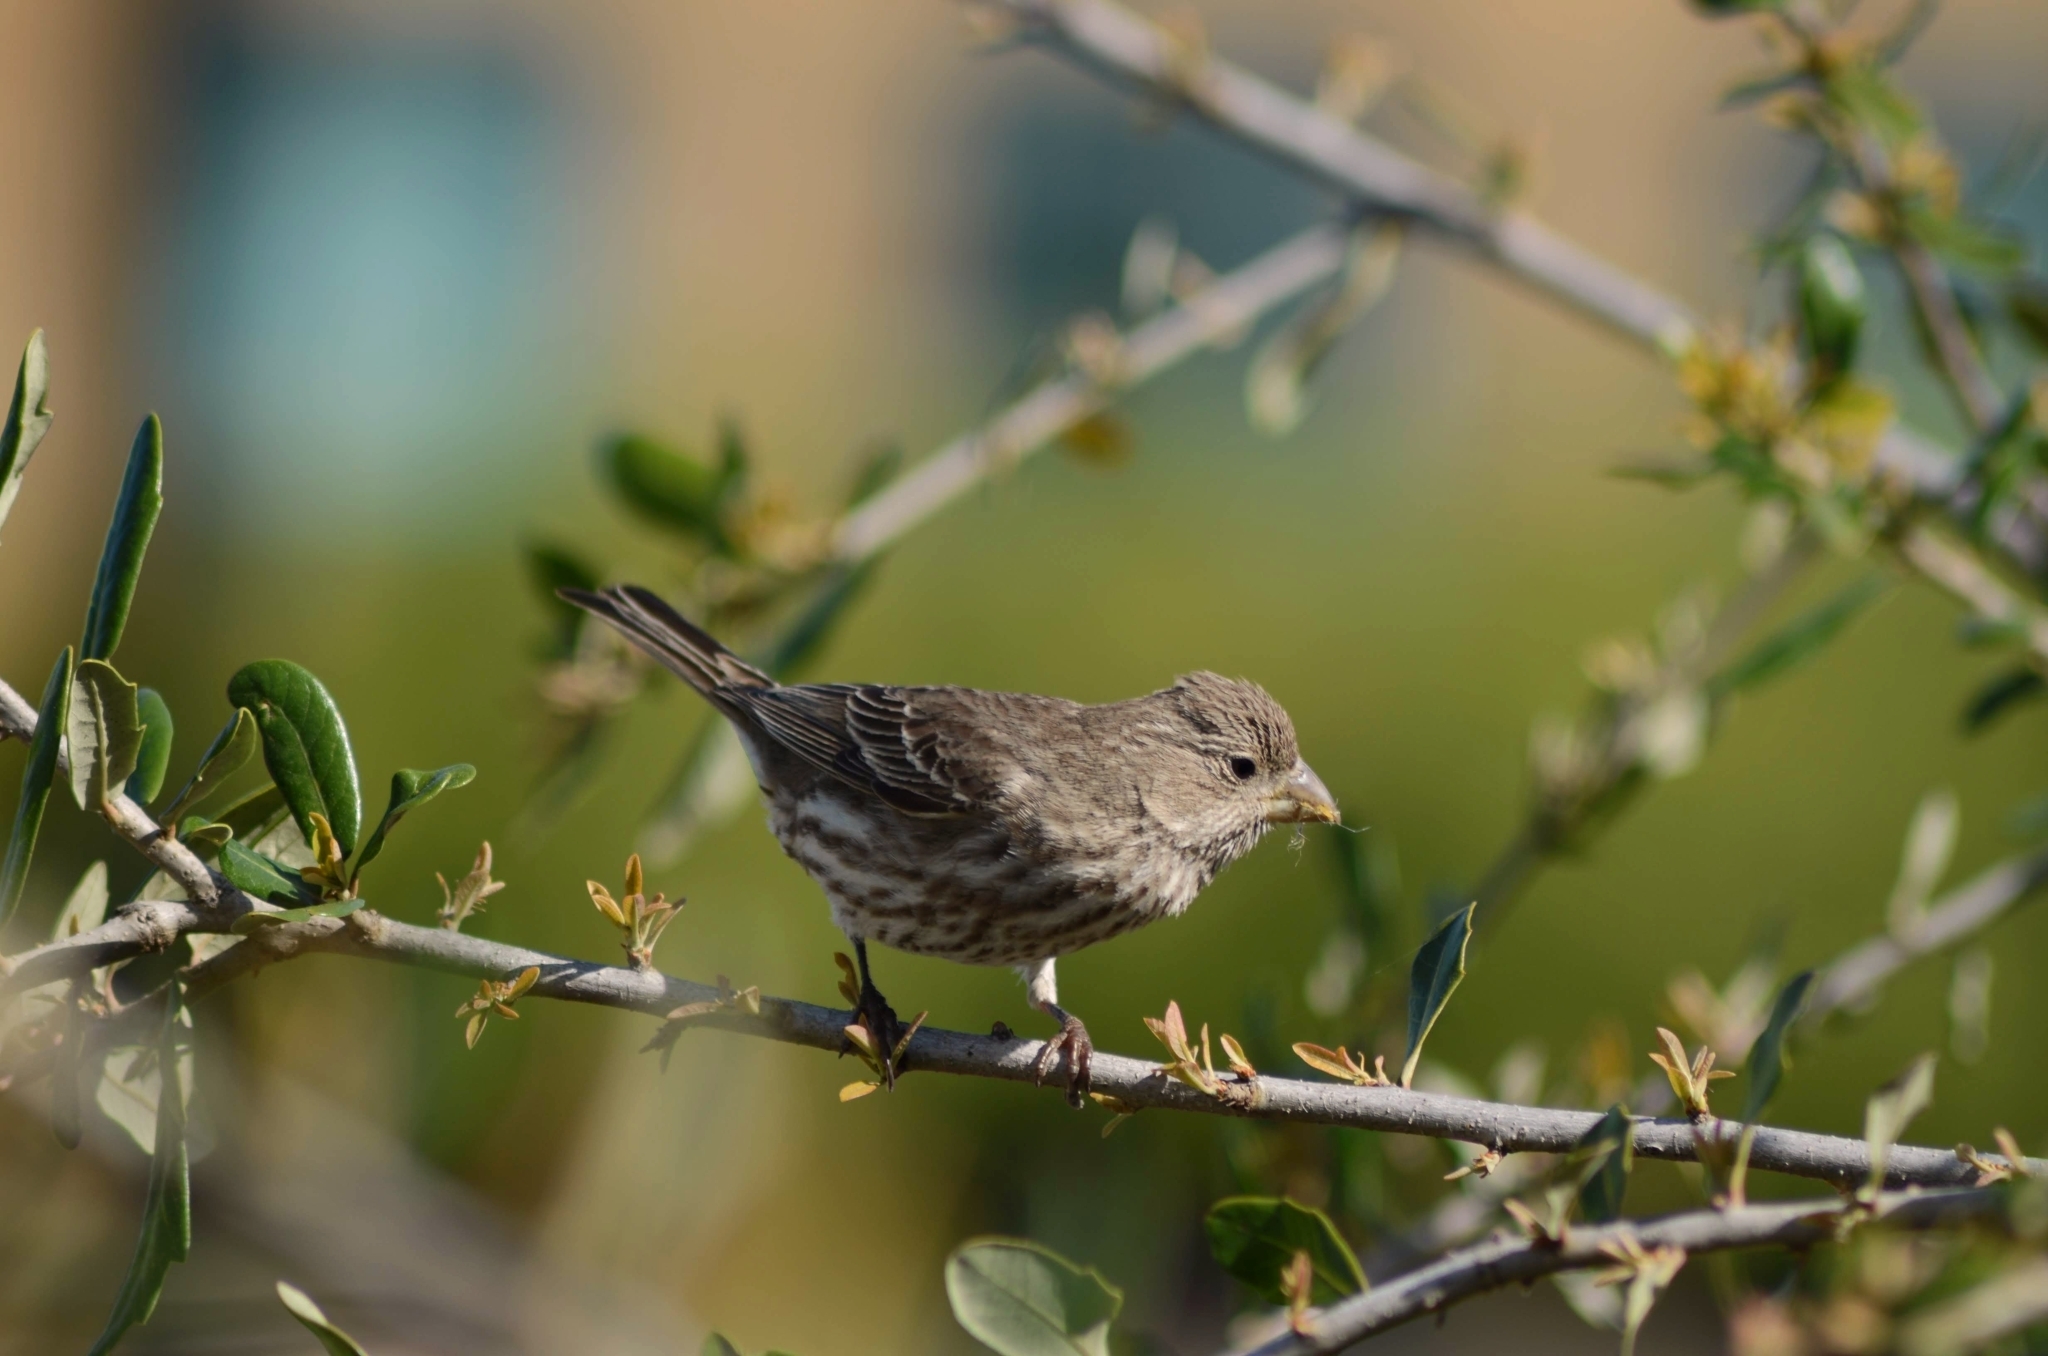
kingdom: Animalia
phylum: Chordata
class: Aves
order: Passeriformes
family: Fringillidae
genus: Haemorhous
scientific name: Haemorhous mexicanus
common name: House finch
